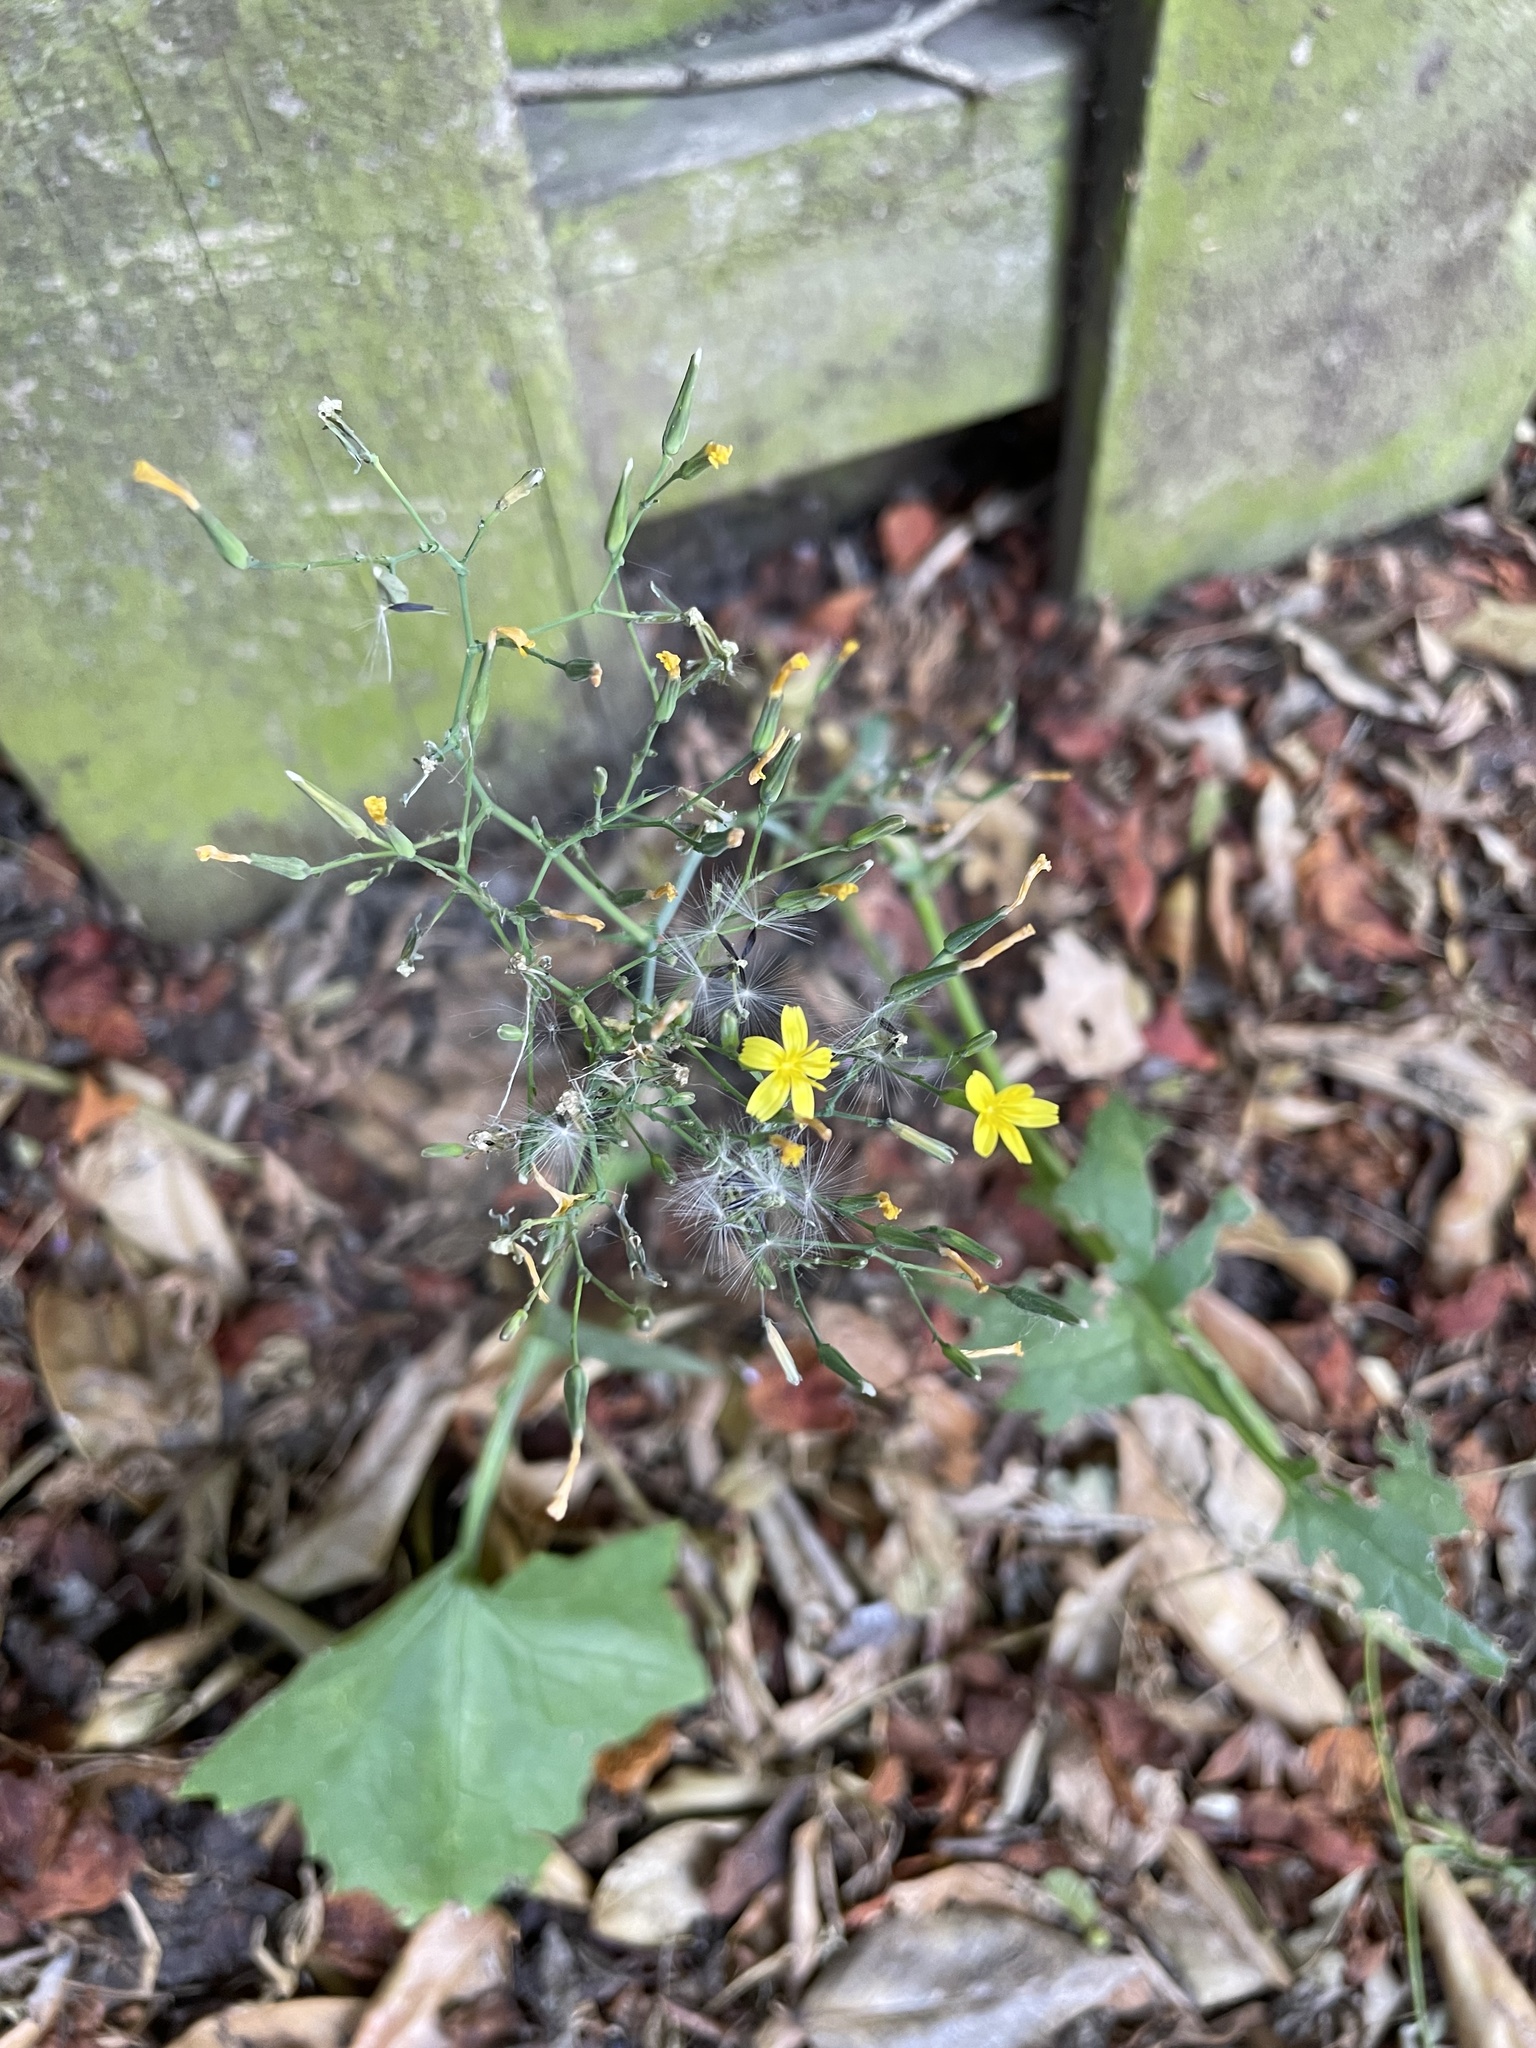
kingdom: Plantae
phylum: Tracheophyta
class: Magnoliopsida
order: Asterales
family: Asteraceae
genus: Mycelis
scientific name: Mycelis muralis
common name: Wall lettuce
